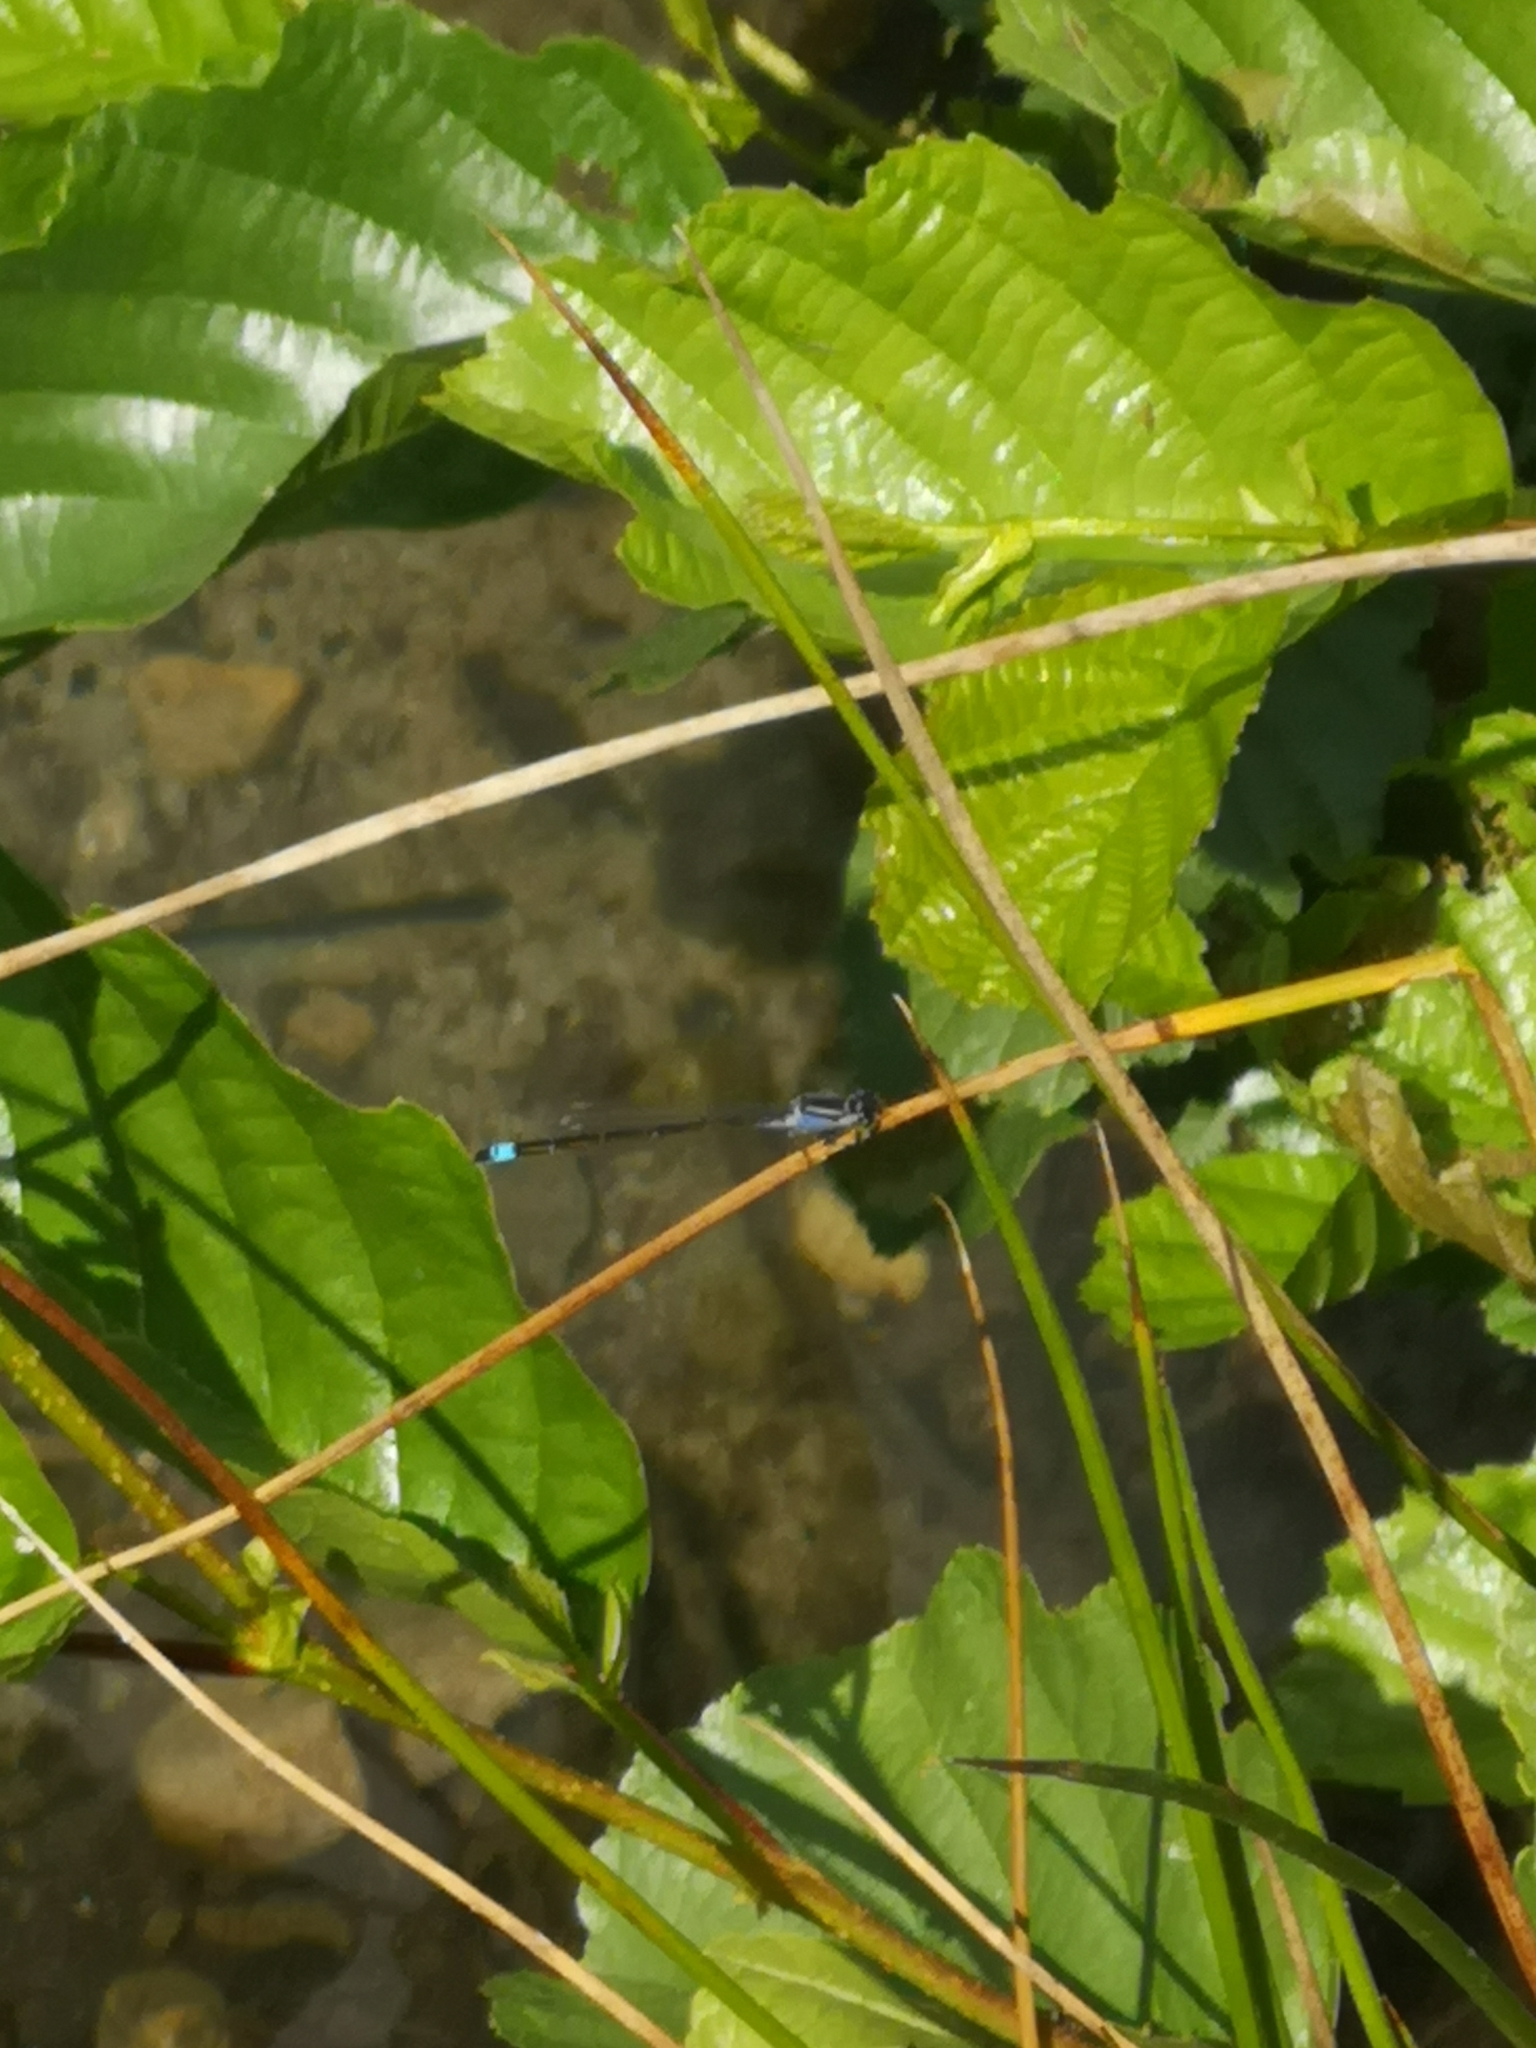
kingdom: Animalia
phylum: Arthropoda
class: Insecta
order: Odonata
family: Coenagrionidae
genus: Ischnura
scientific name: Ischnura elegans
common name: Blue-tailed damselfly
